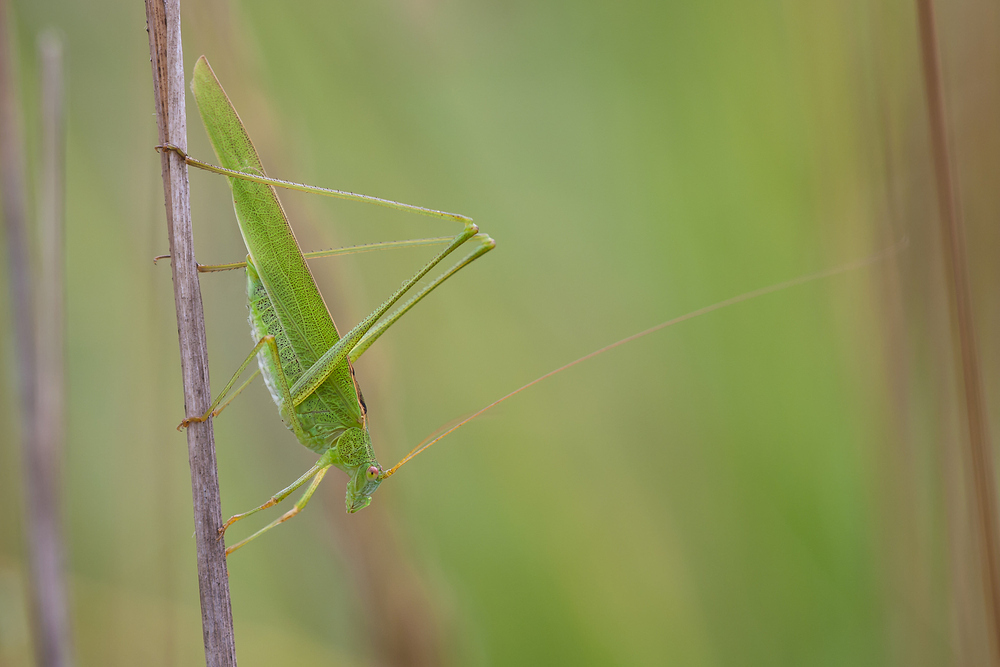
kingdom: Animalia
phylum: Arthropoda
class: Insecta
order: Orthoptera
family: Tettigoniidae
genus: Phaneroptera
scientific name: Phaneroptera falcata
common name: Sickle-bearing bush-cricket
